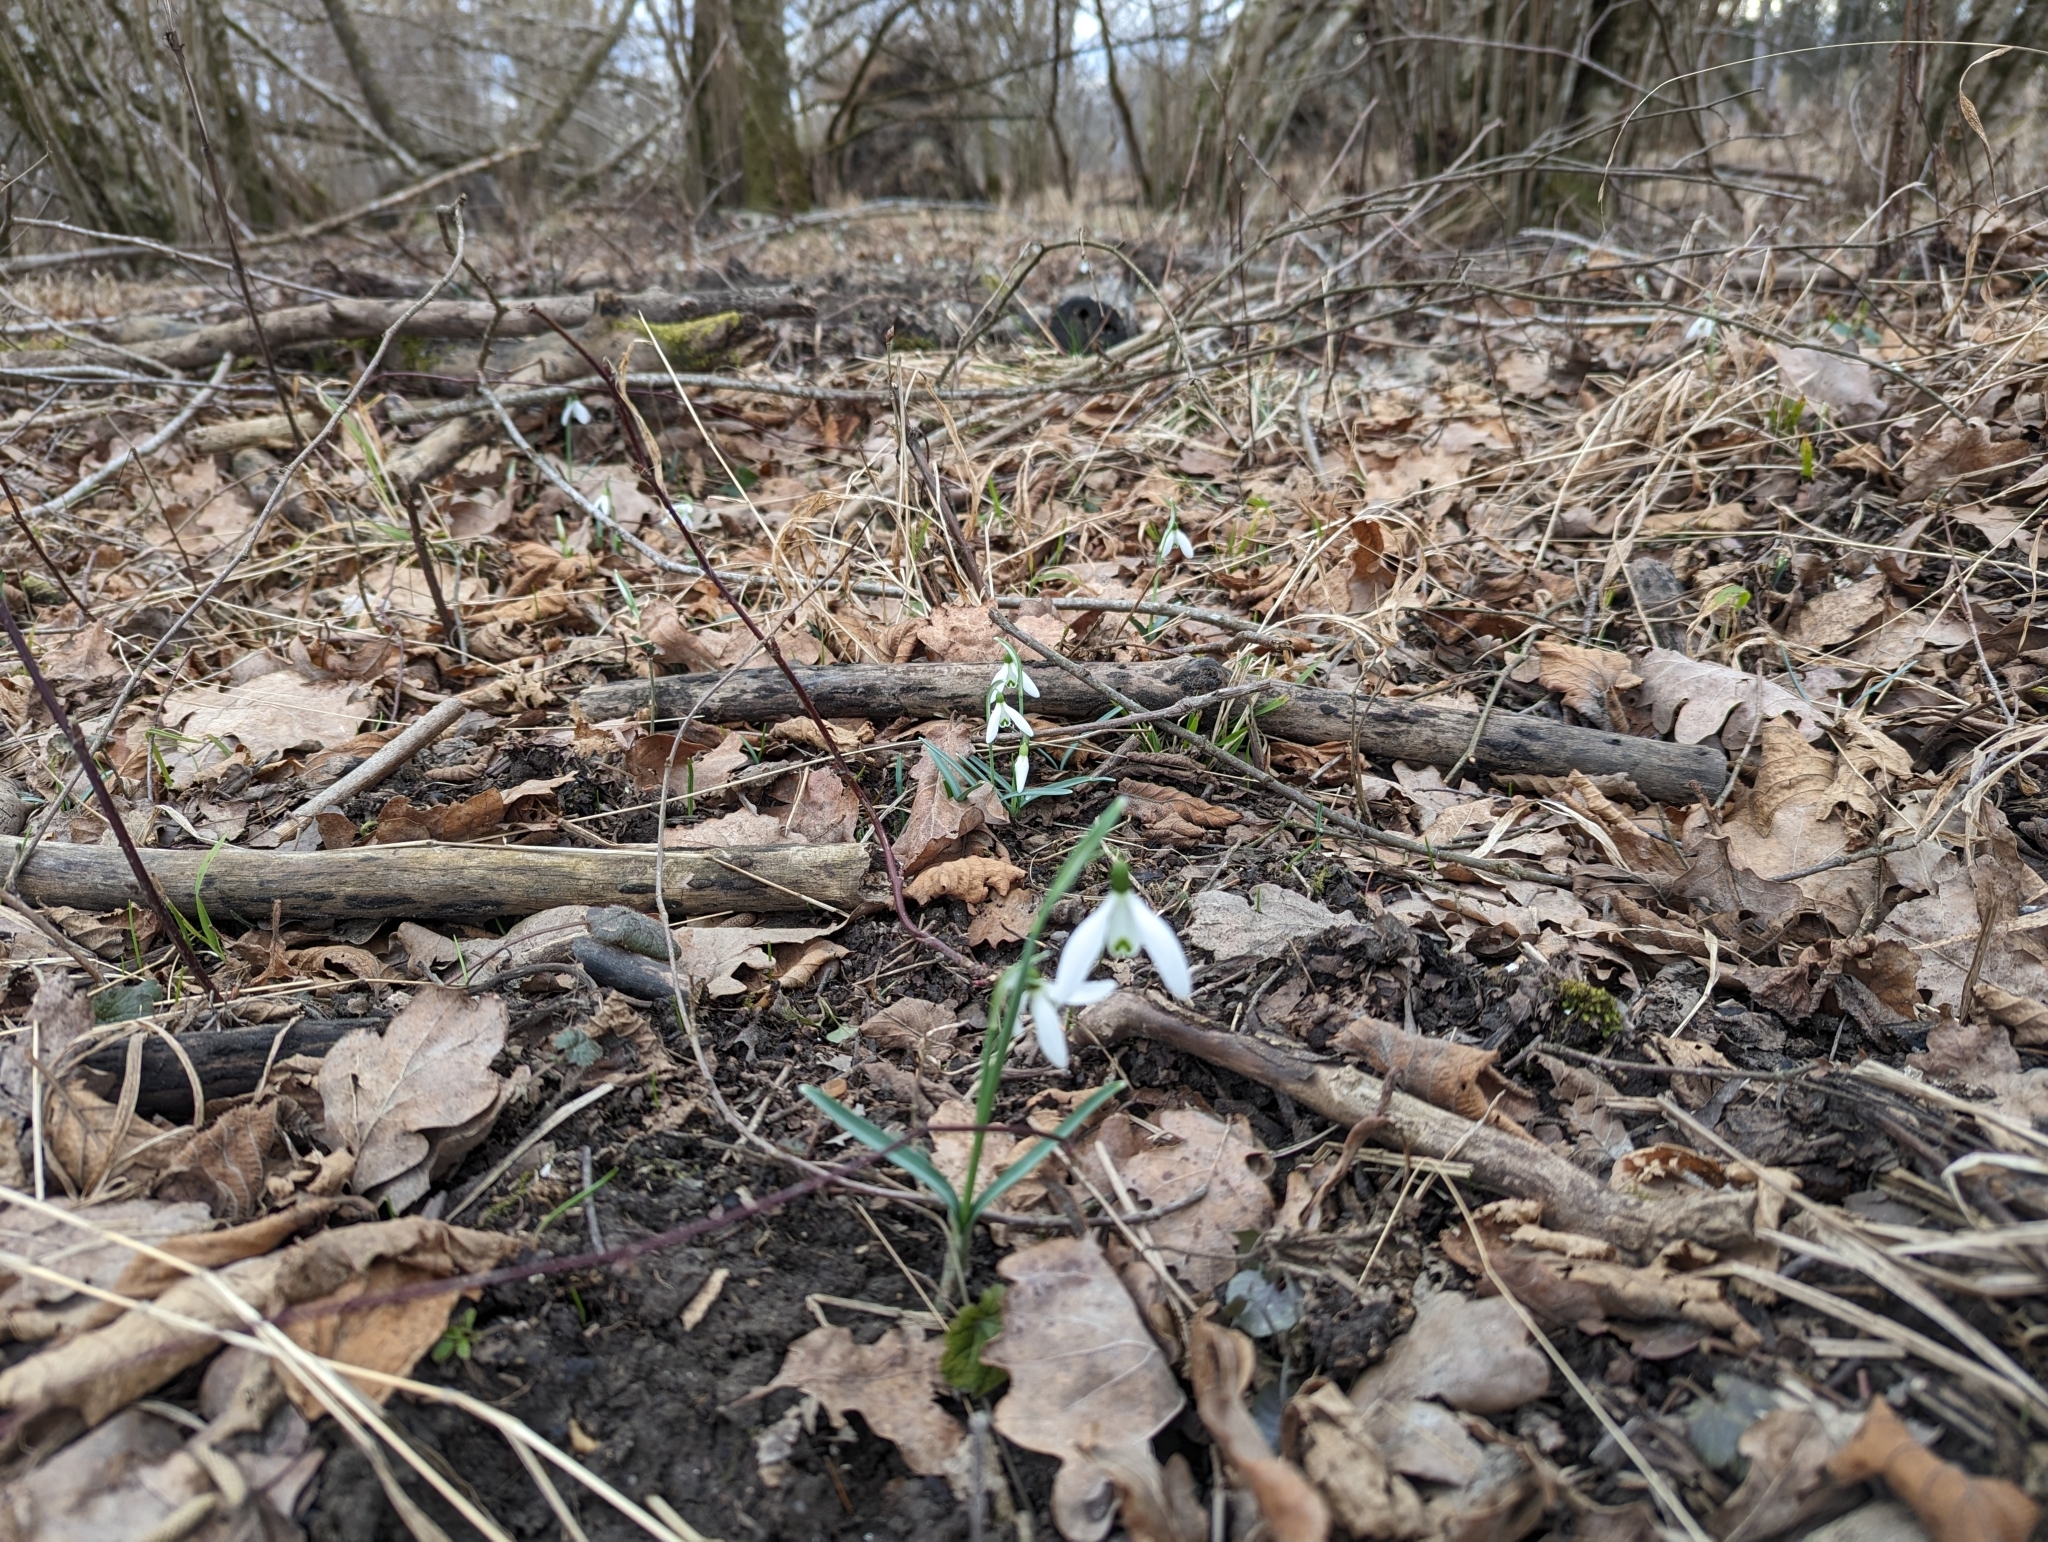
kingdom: Plantae
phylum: Tracheophyta
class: Liliopsida
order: Asparagales
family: Amaryllidaceae
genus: Galanthus
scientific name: Galanthus nivalis
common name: Snowdrop
